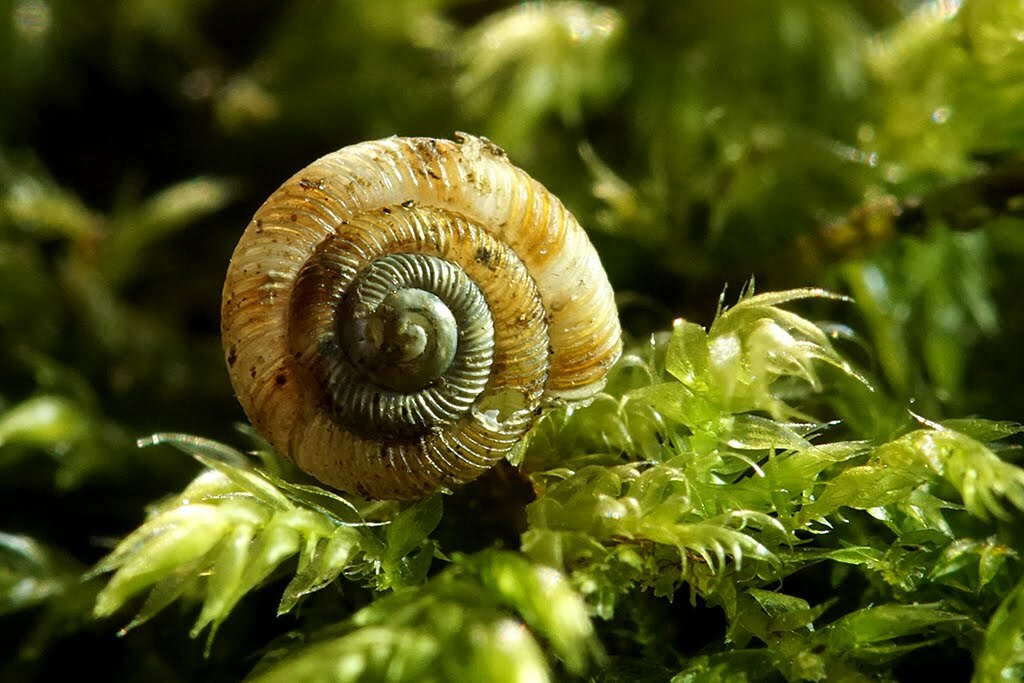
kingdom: Animalia
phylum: Mollusca
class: Gastropoda
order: Stylommatophora
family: Discidae
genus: Discus
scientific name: Discus rotundatus
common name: Rounded snail
